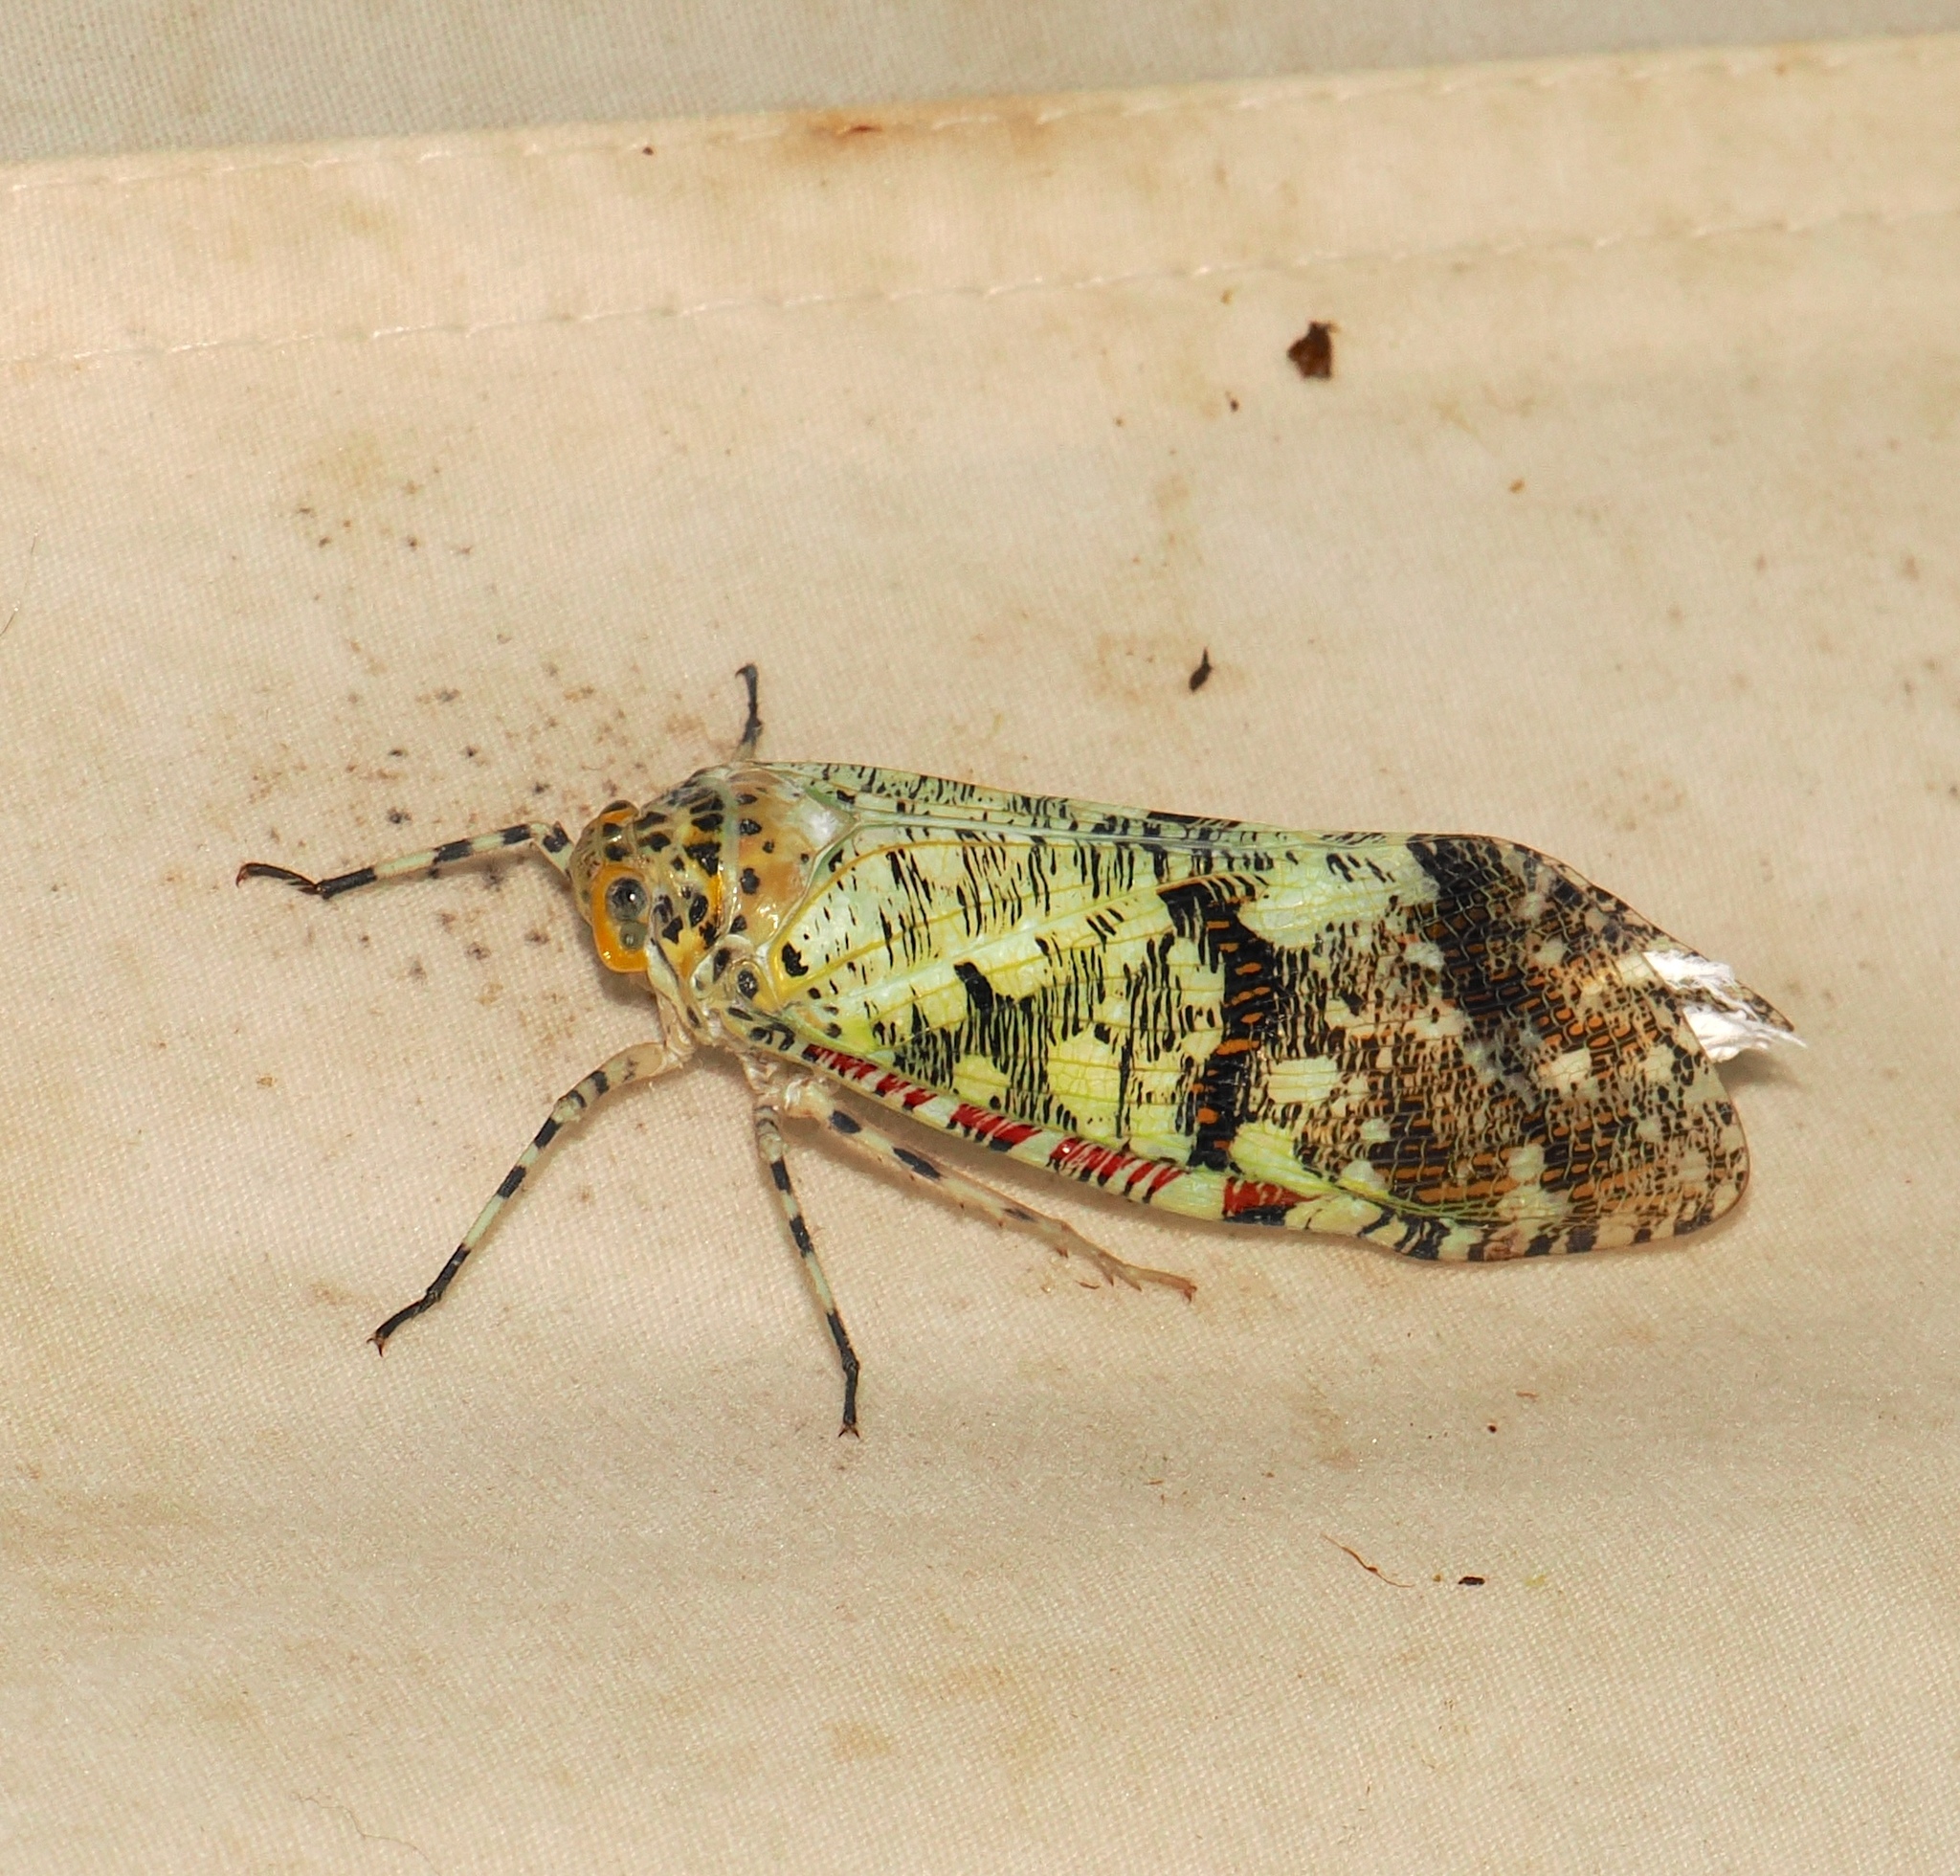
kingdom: Animalia
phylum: Arthropoda
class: Insecta
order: Hemiptera
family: Fulgoridae
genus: Phenax
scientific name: Phenax variegata
